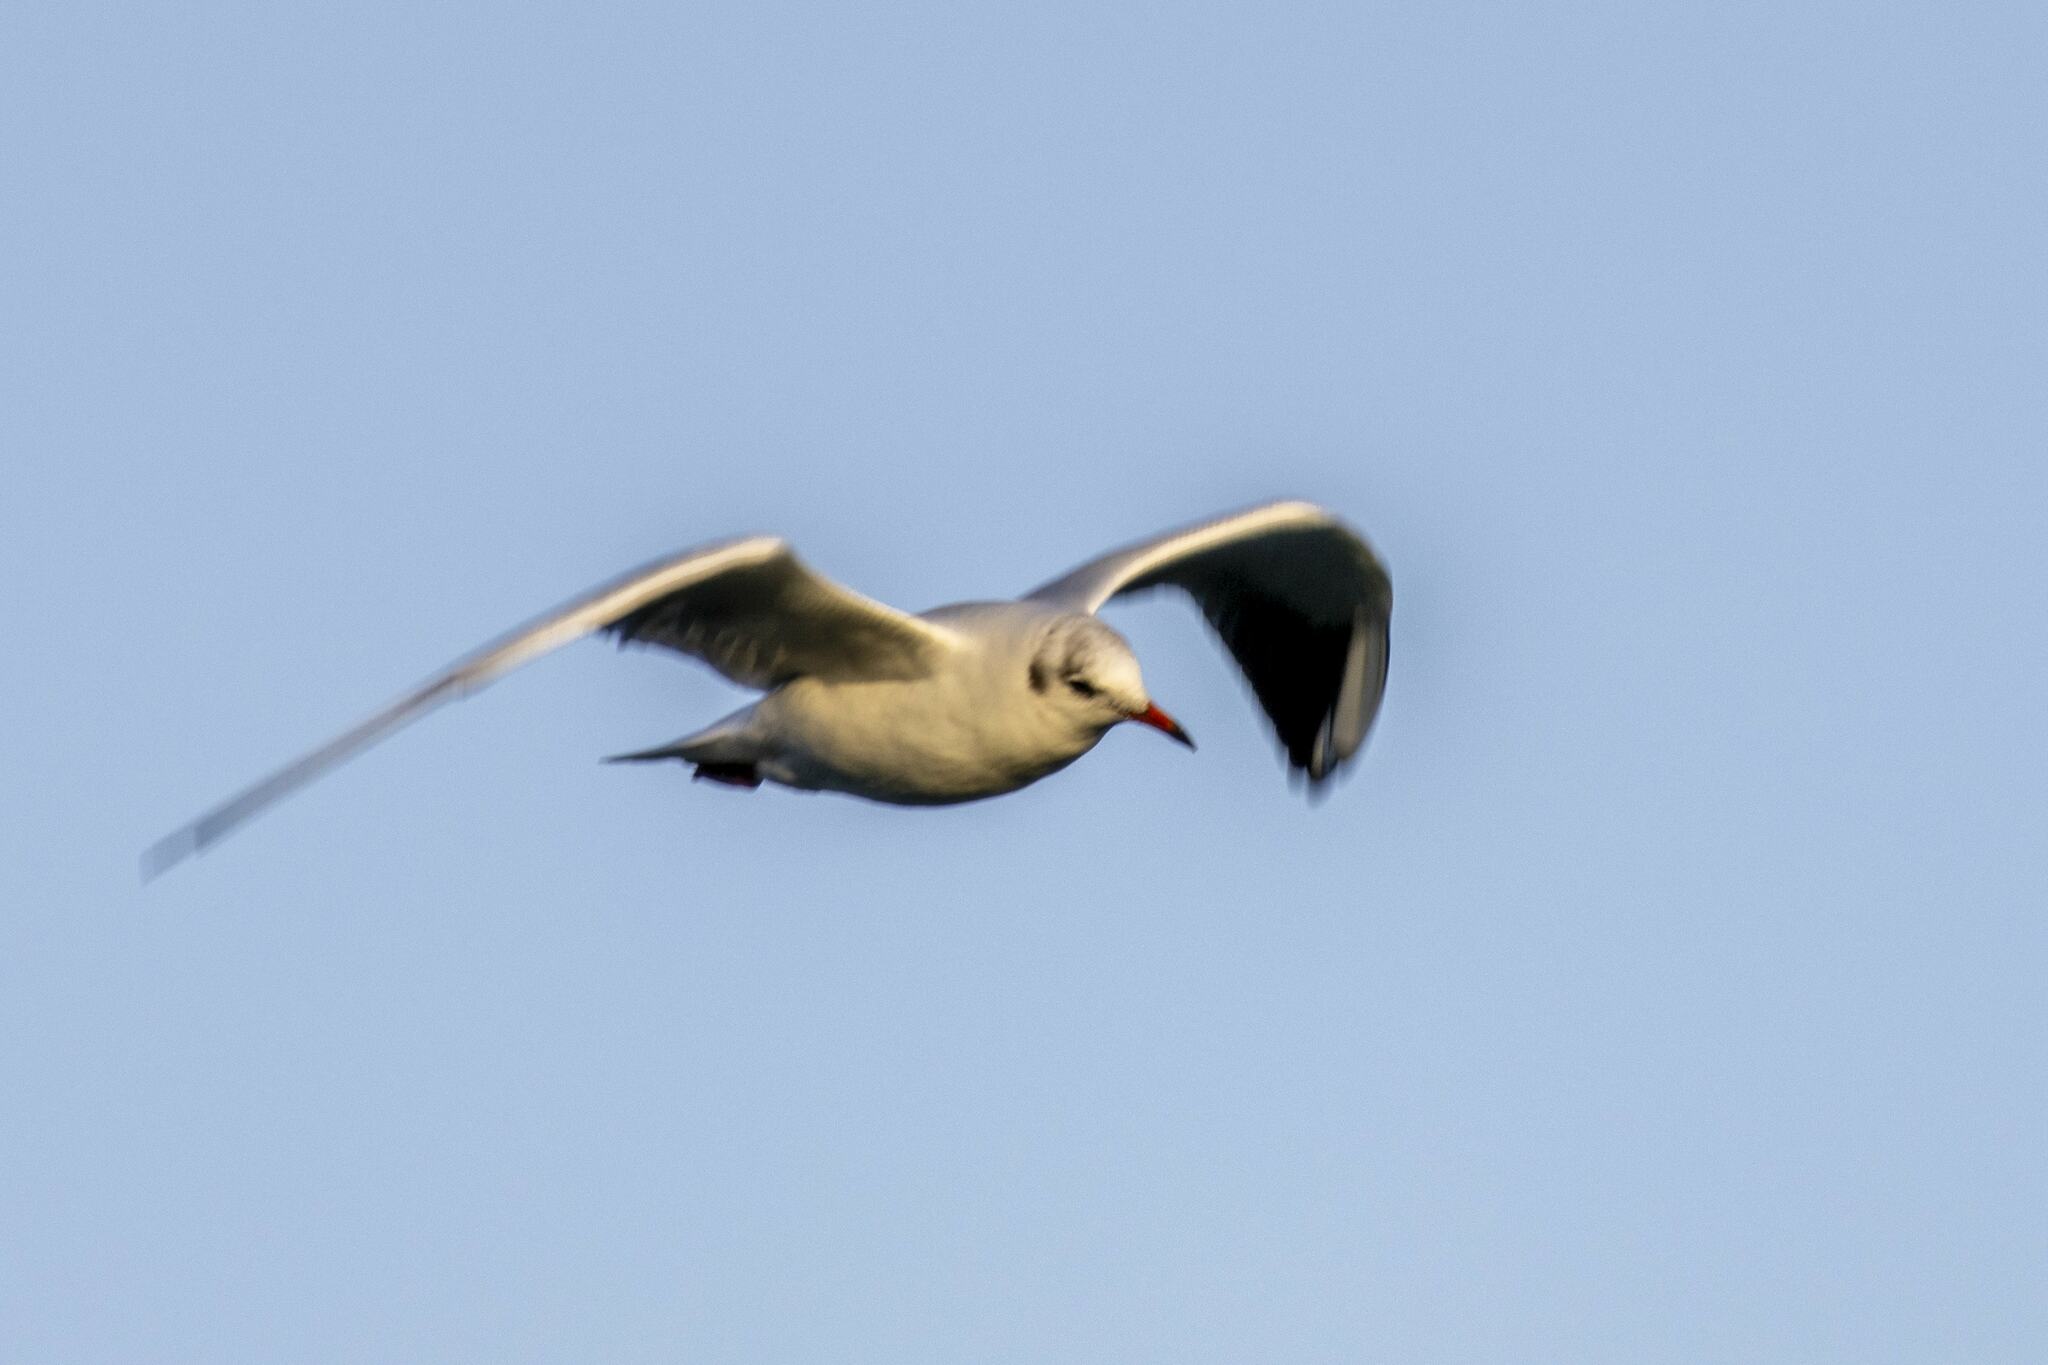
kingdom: Animalia
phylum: Chordata
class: Aves
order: Charadriiformes
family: Laridae
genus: Chroicocephalus
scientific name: Chroicocephalus ridibundus
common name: Black-headed gull
